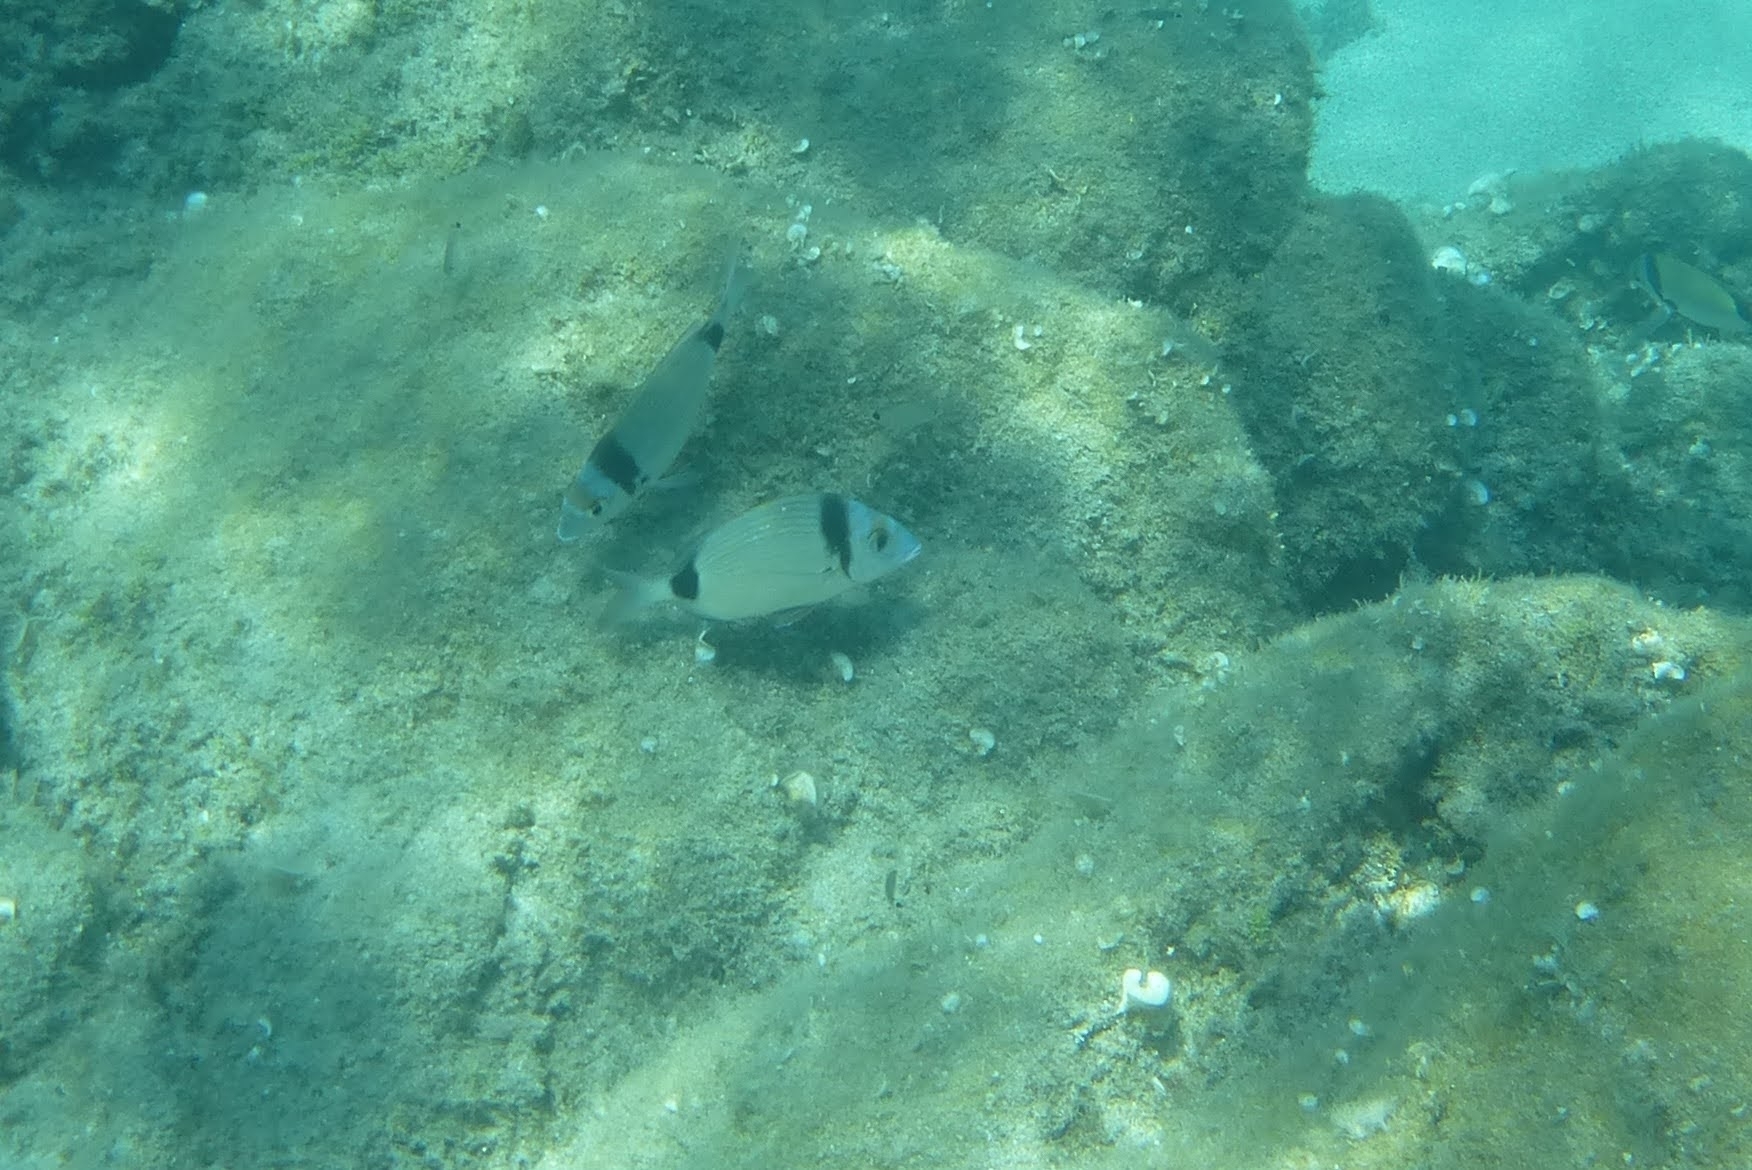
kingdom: Animalia
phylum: Chordata
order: Perciformes
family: Sparidae
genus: Diplodus
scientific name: Diplodus vulgaris
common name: Common two-banded seabream
